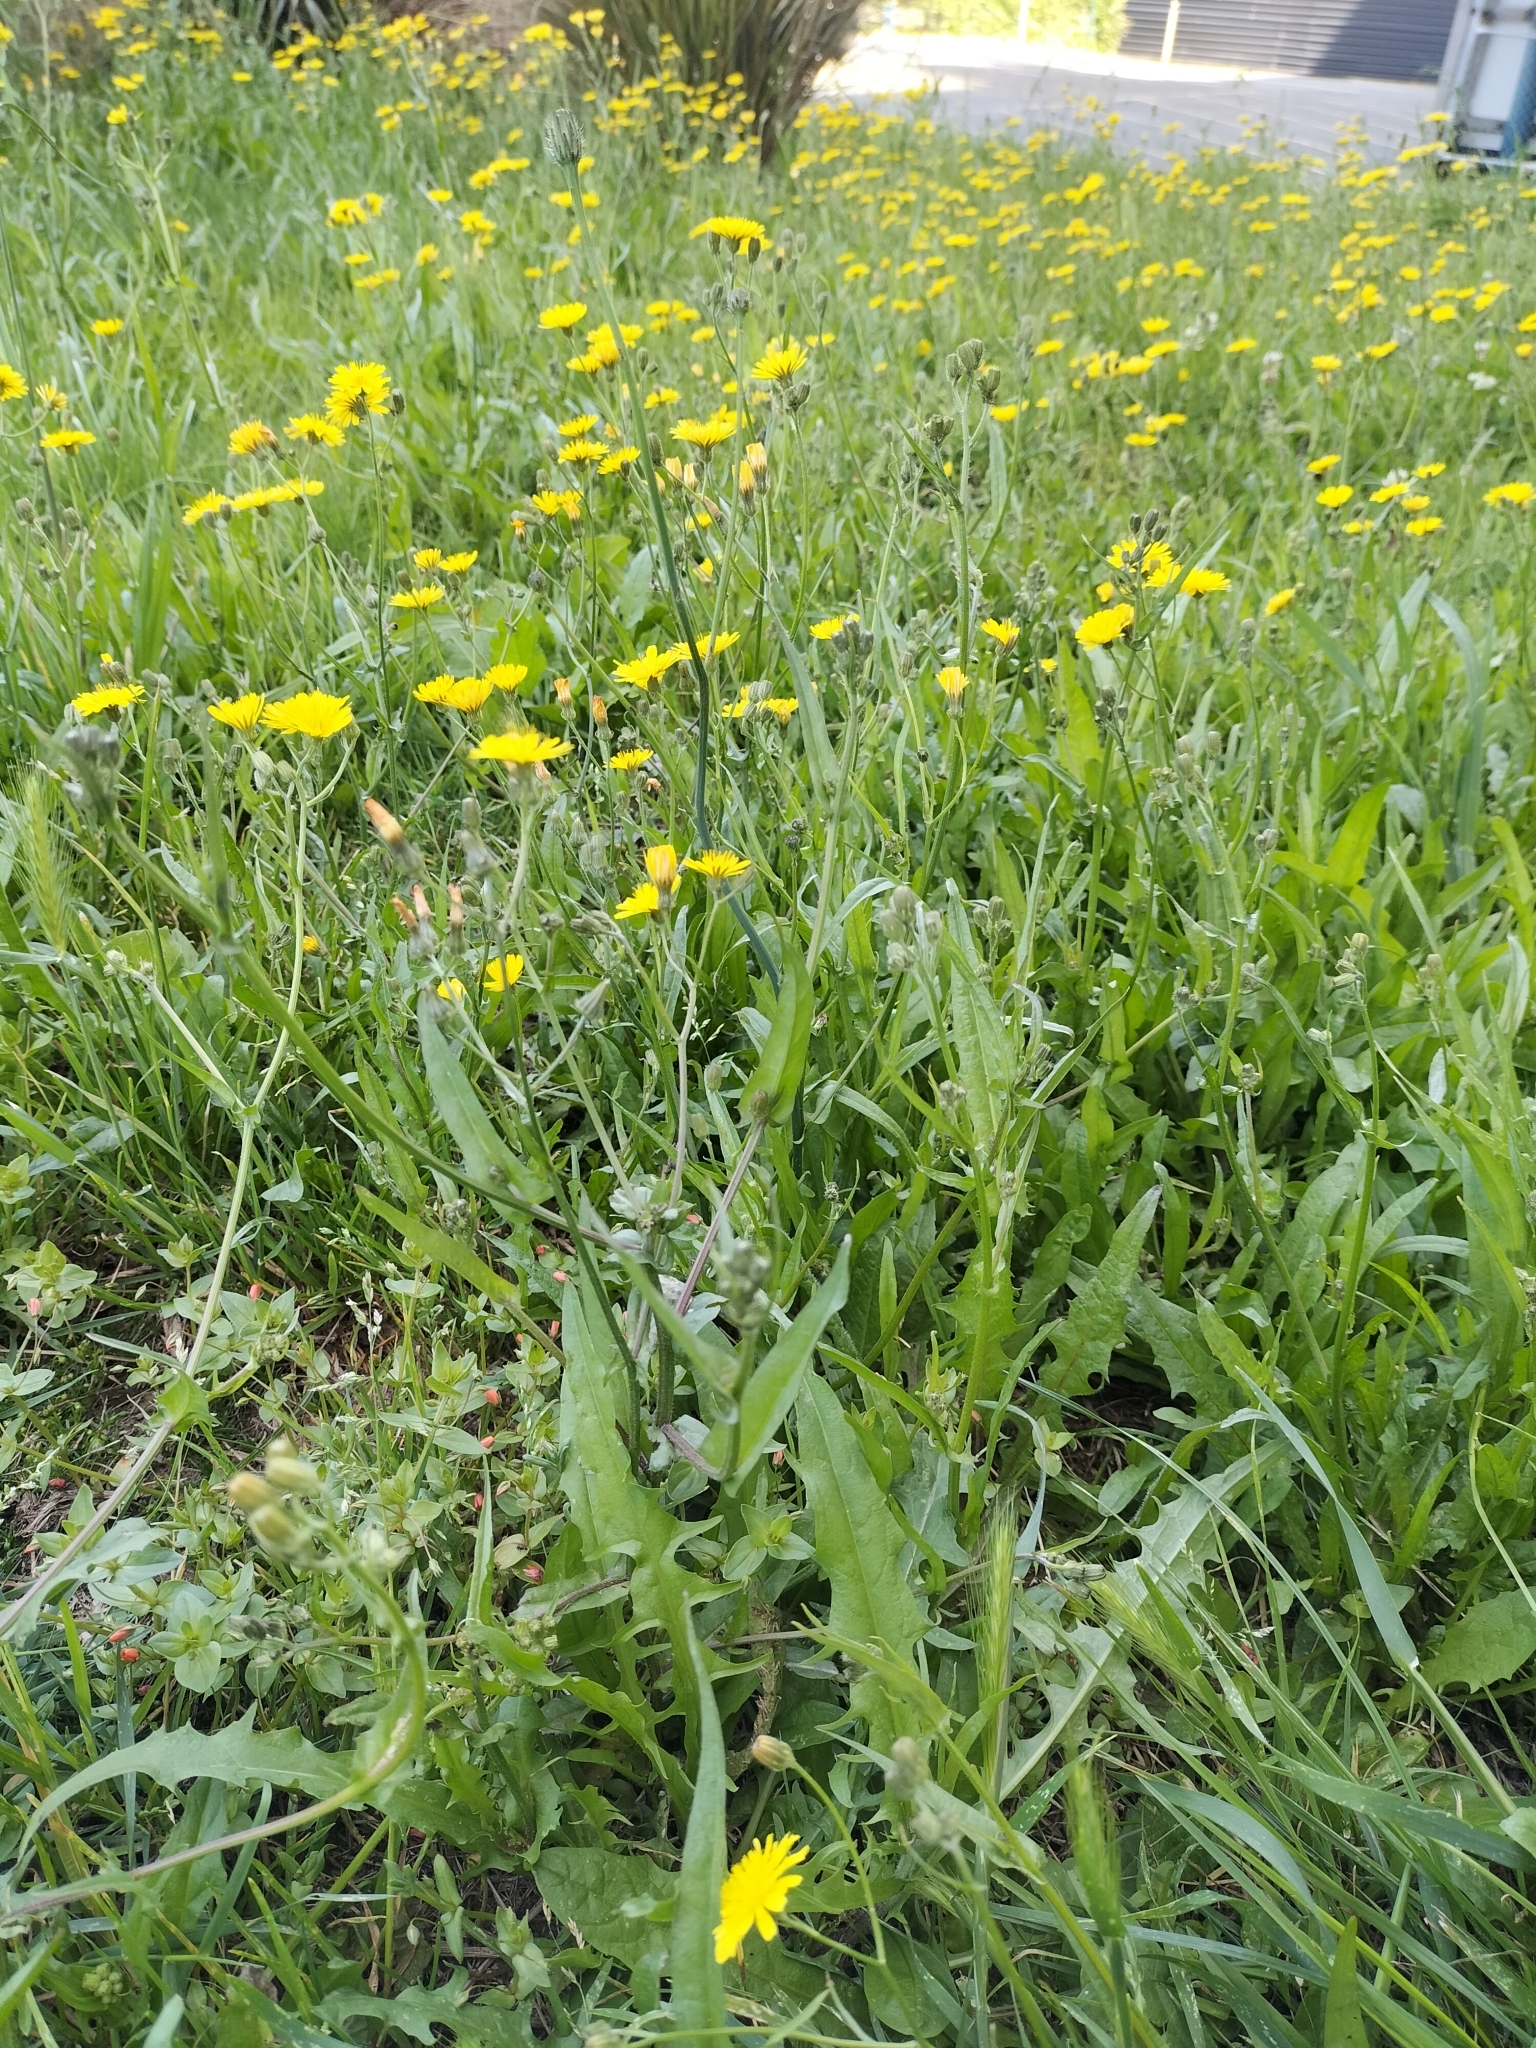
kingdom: Plantae
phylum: Tracheophyta
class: Magnoliopsida
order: Asterales
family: Asteraceae
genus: Crepis
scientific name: Crepis capillaris
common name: Smooth hawksbeard
